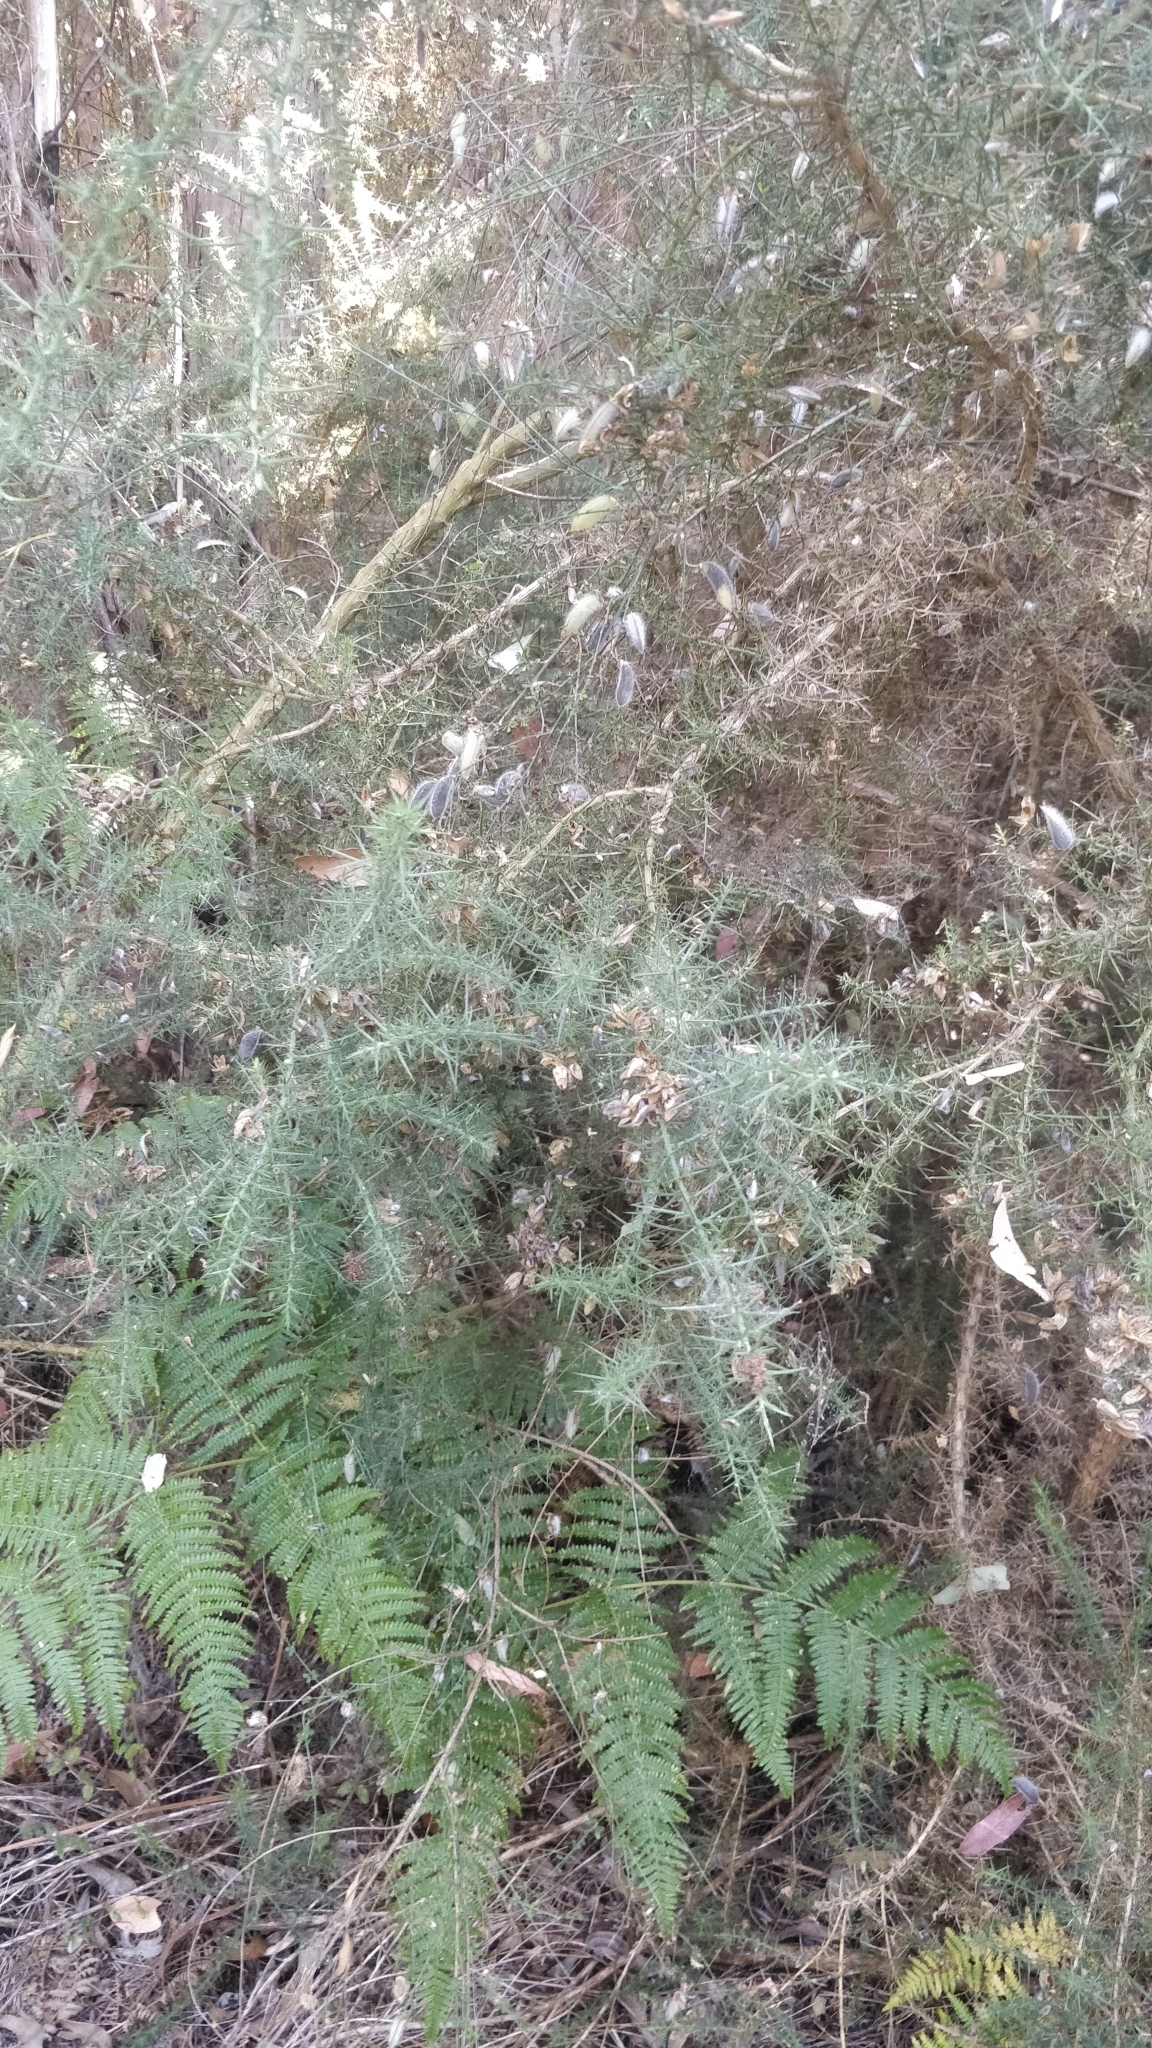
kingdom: Plantae
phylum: Tracheophyta
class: Magnoliopsida
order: Fabales
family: Fabaceae
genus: Ulex
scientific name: Ulex europaeus
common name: Common gorse
